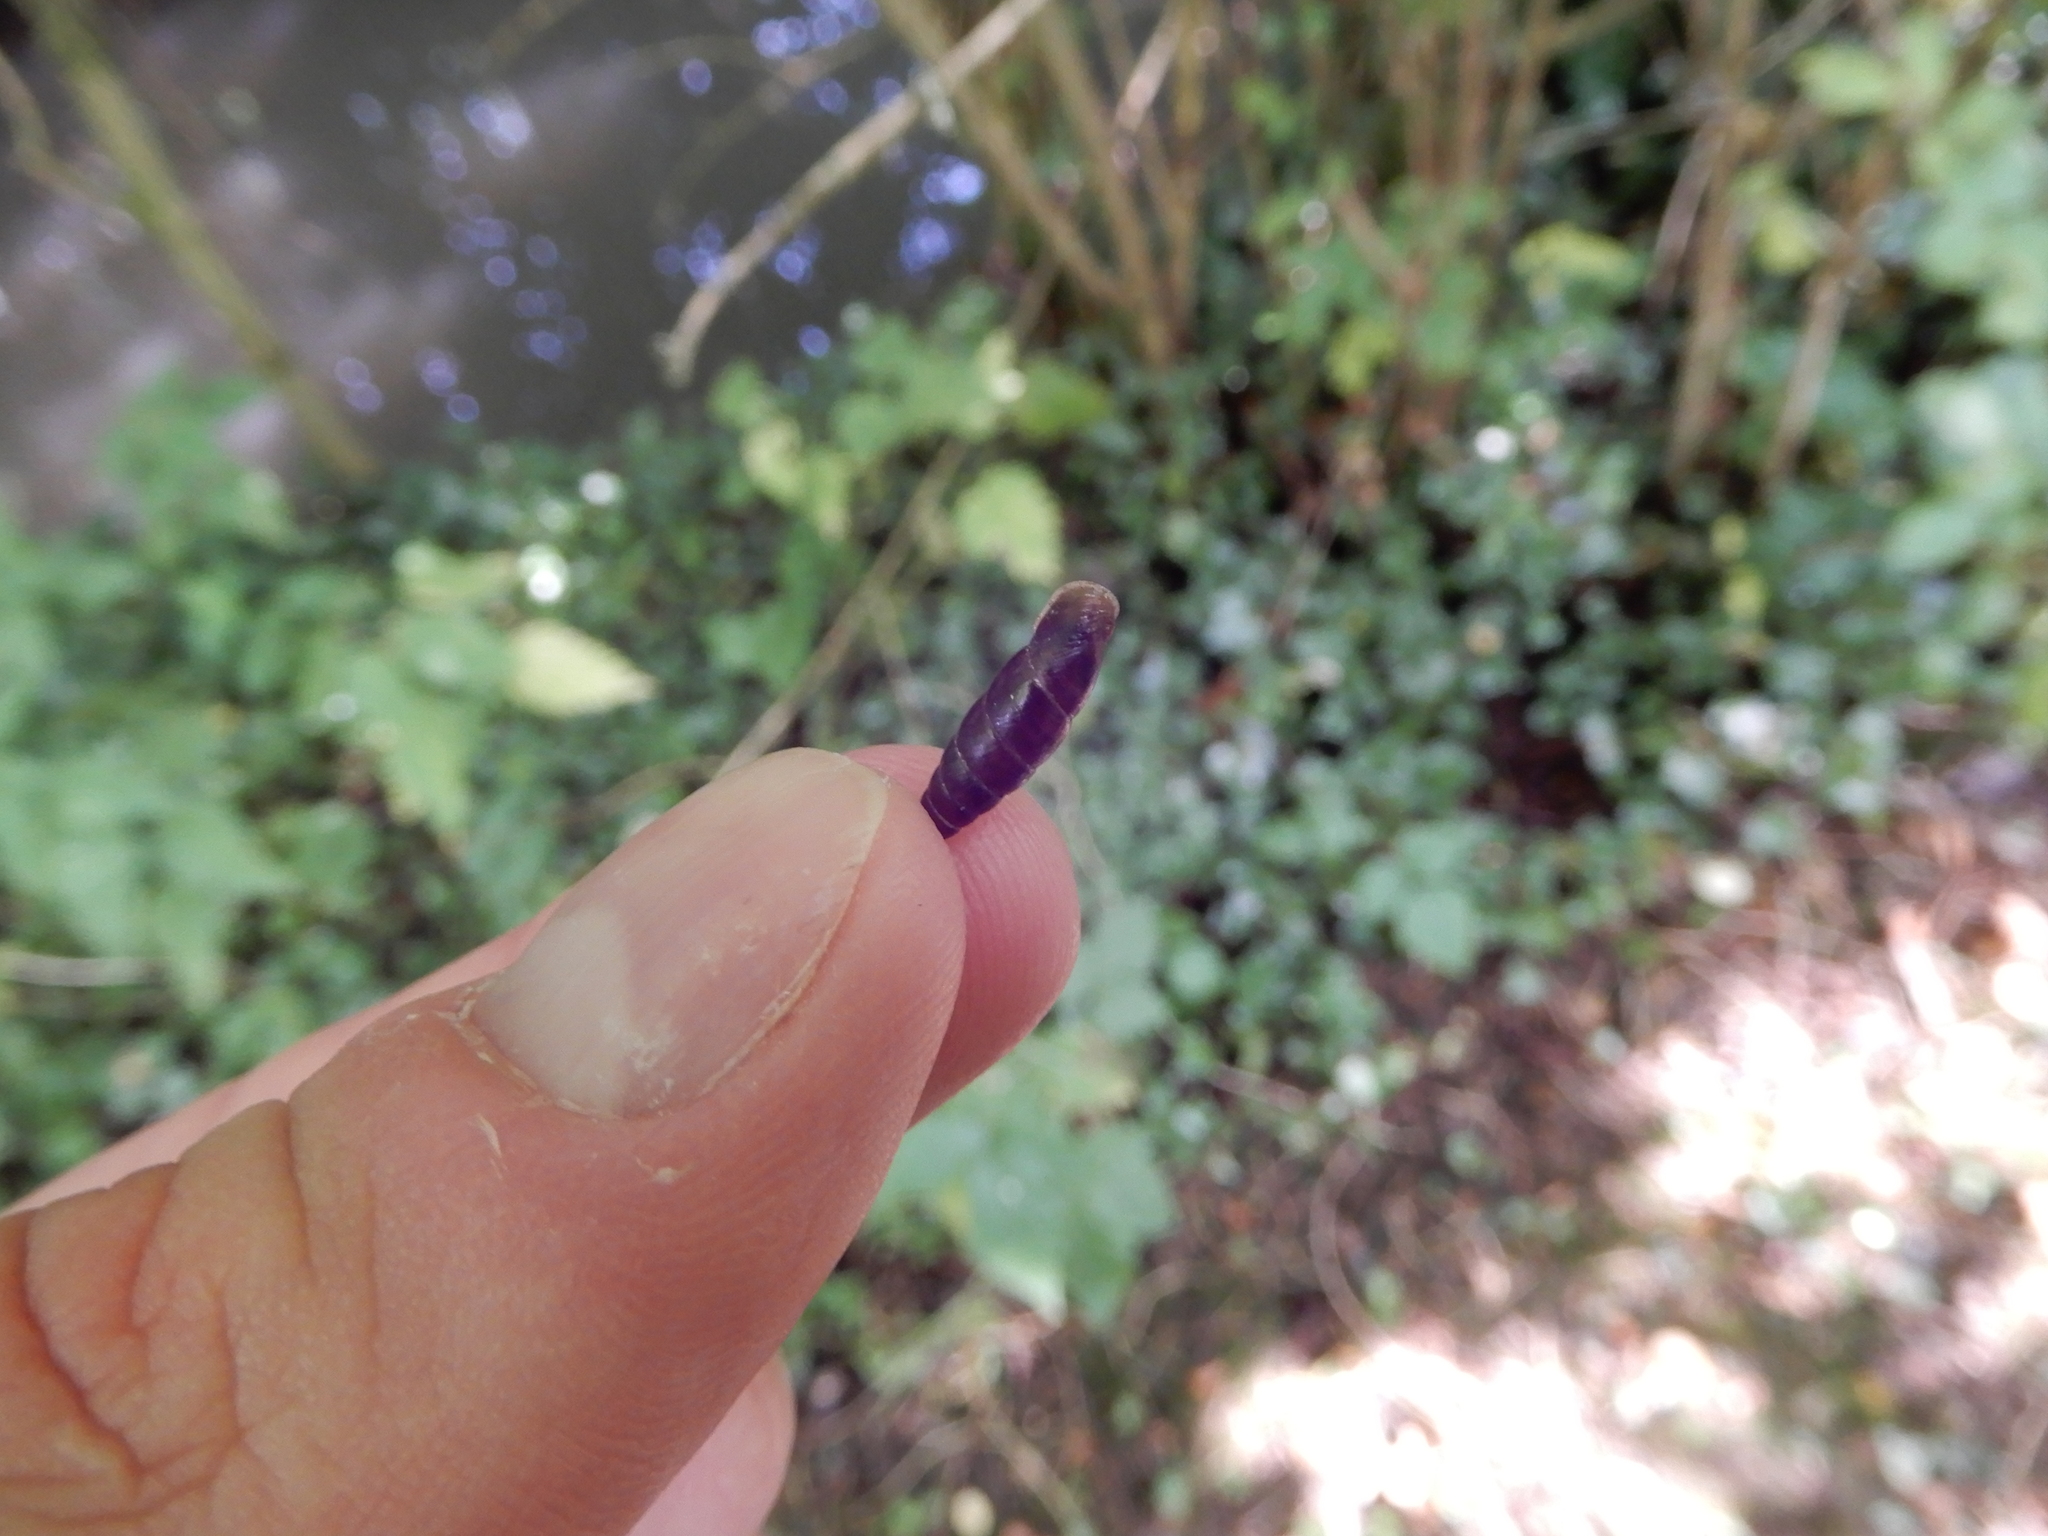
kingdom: Animalia
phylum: Mollusca
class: Gastropoda
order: Stylommatophora
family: Clausiliidae
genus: Cochlodina
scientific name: Cochlodina laminata
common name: Plaited door snail
